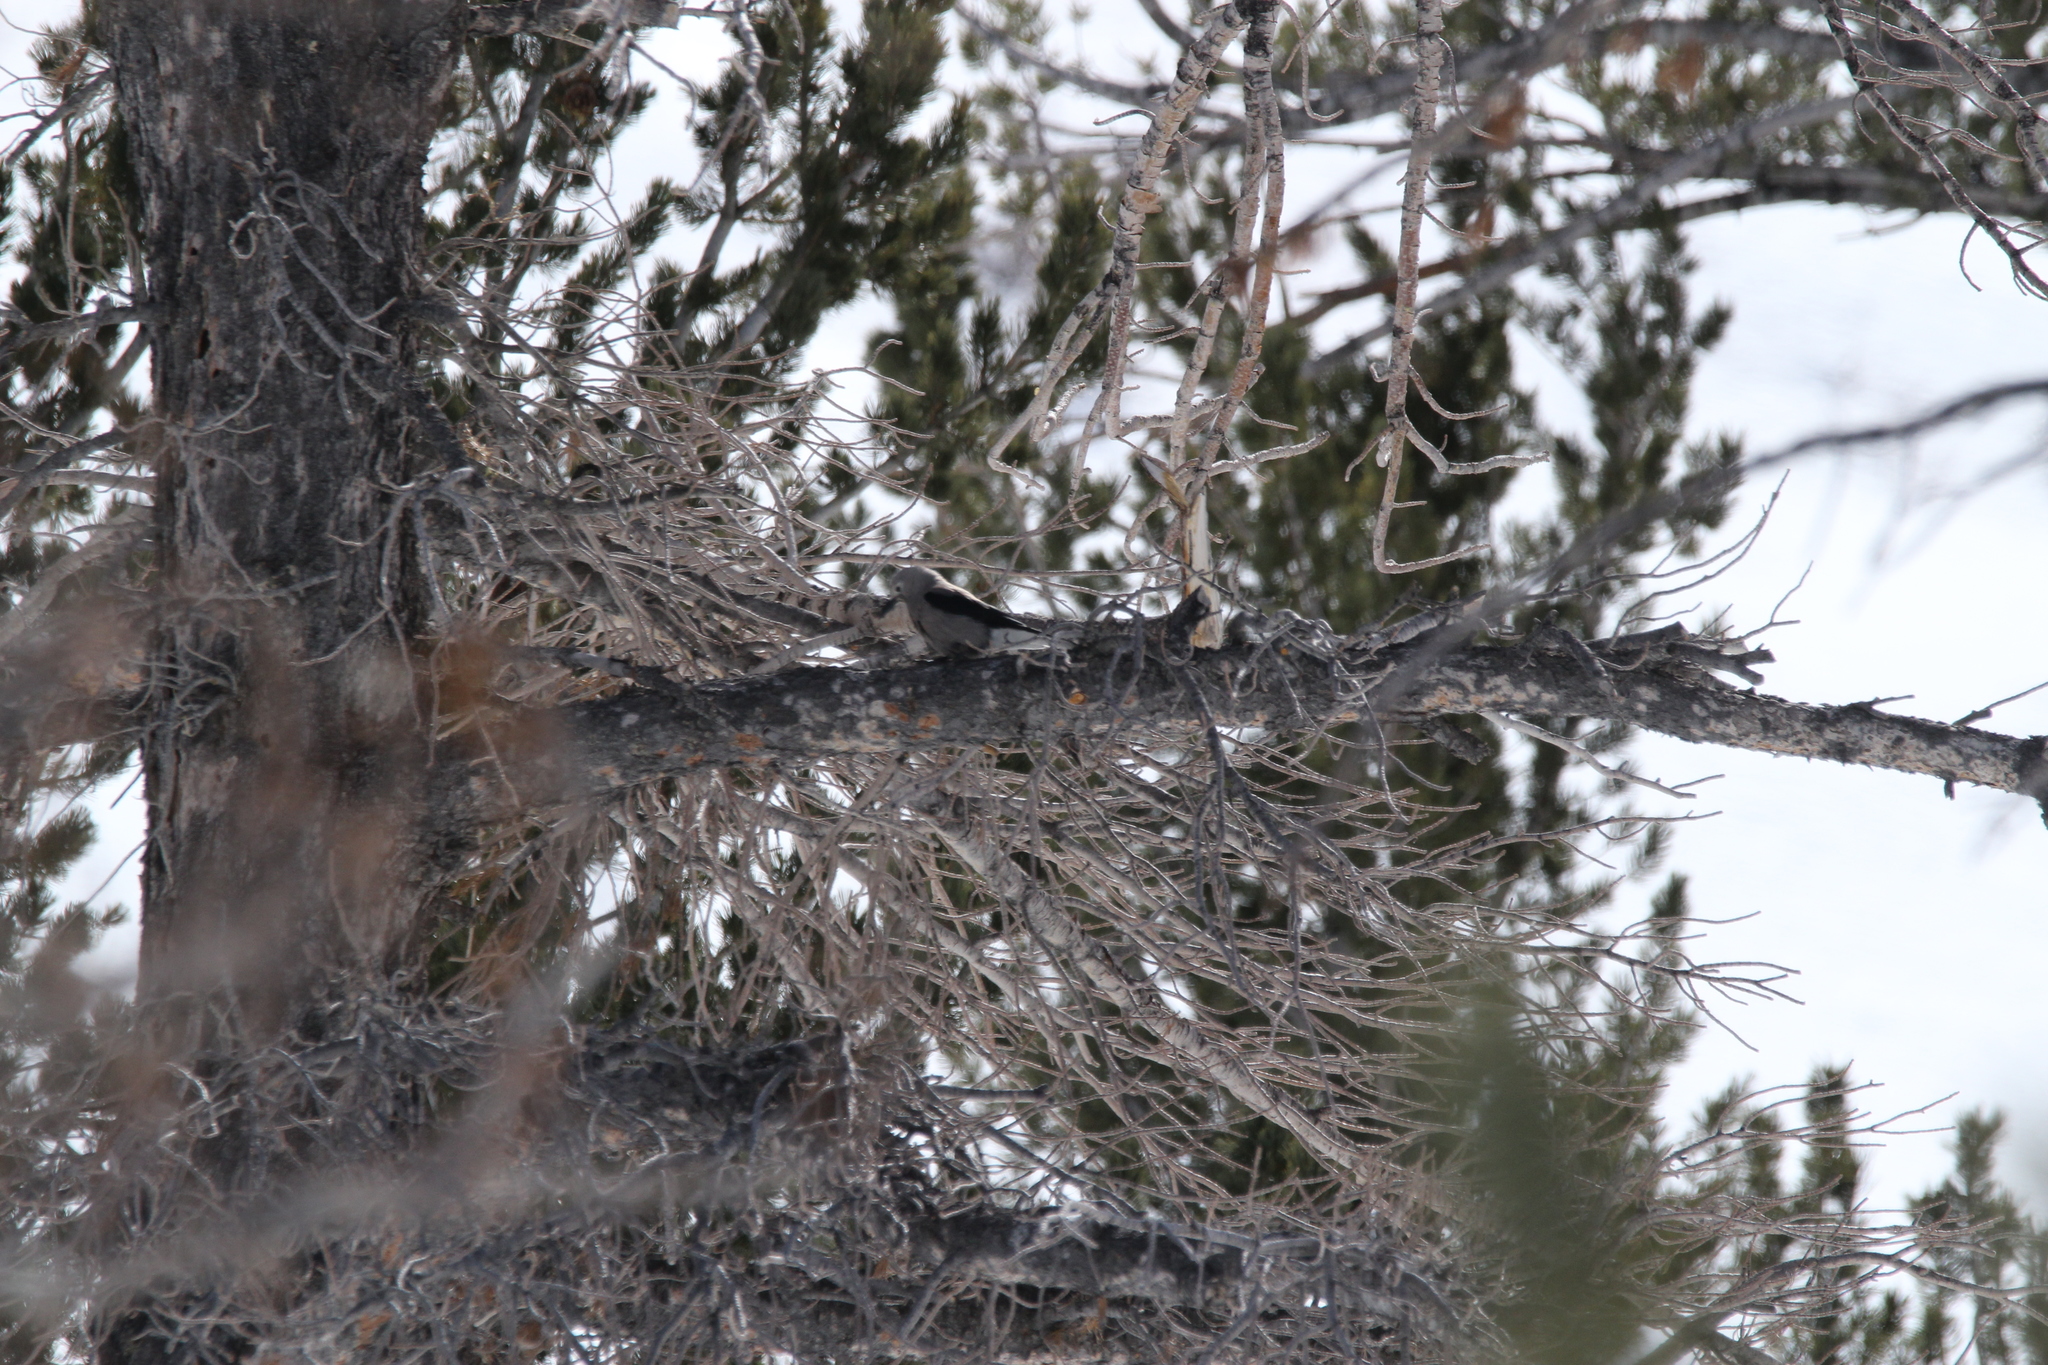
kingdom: Animalia
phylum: Chordata
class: Aves
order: Passeriformes
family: Corvidae
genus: Nucifraga
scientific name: Nucifraga columbiana
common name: Clark's nutcracker
